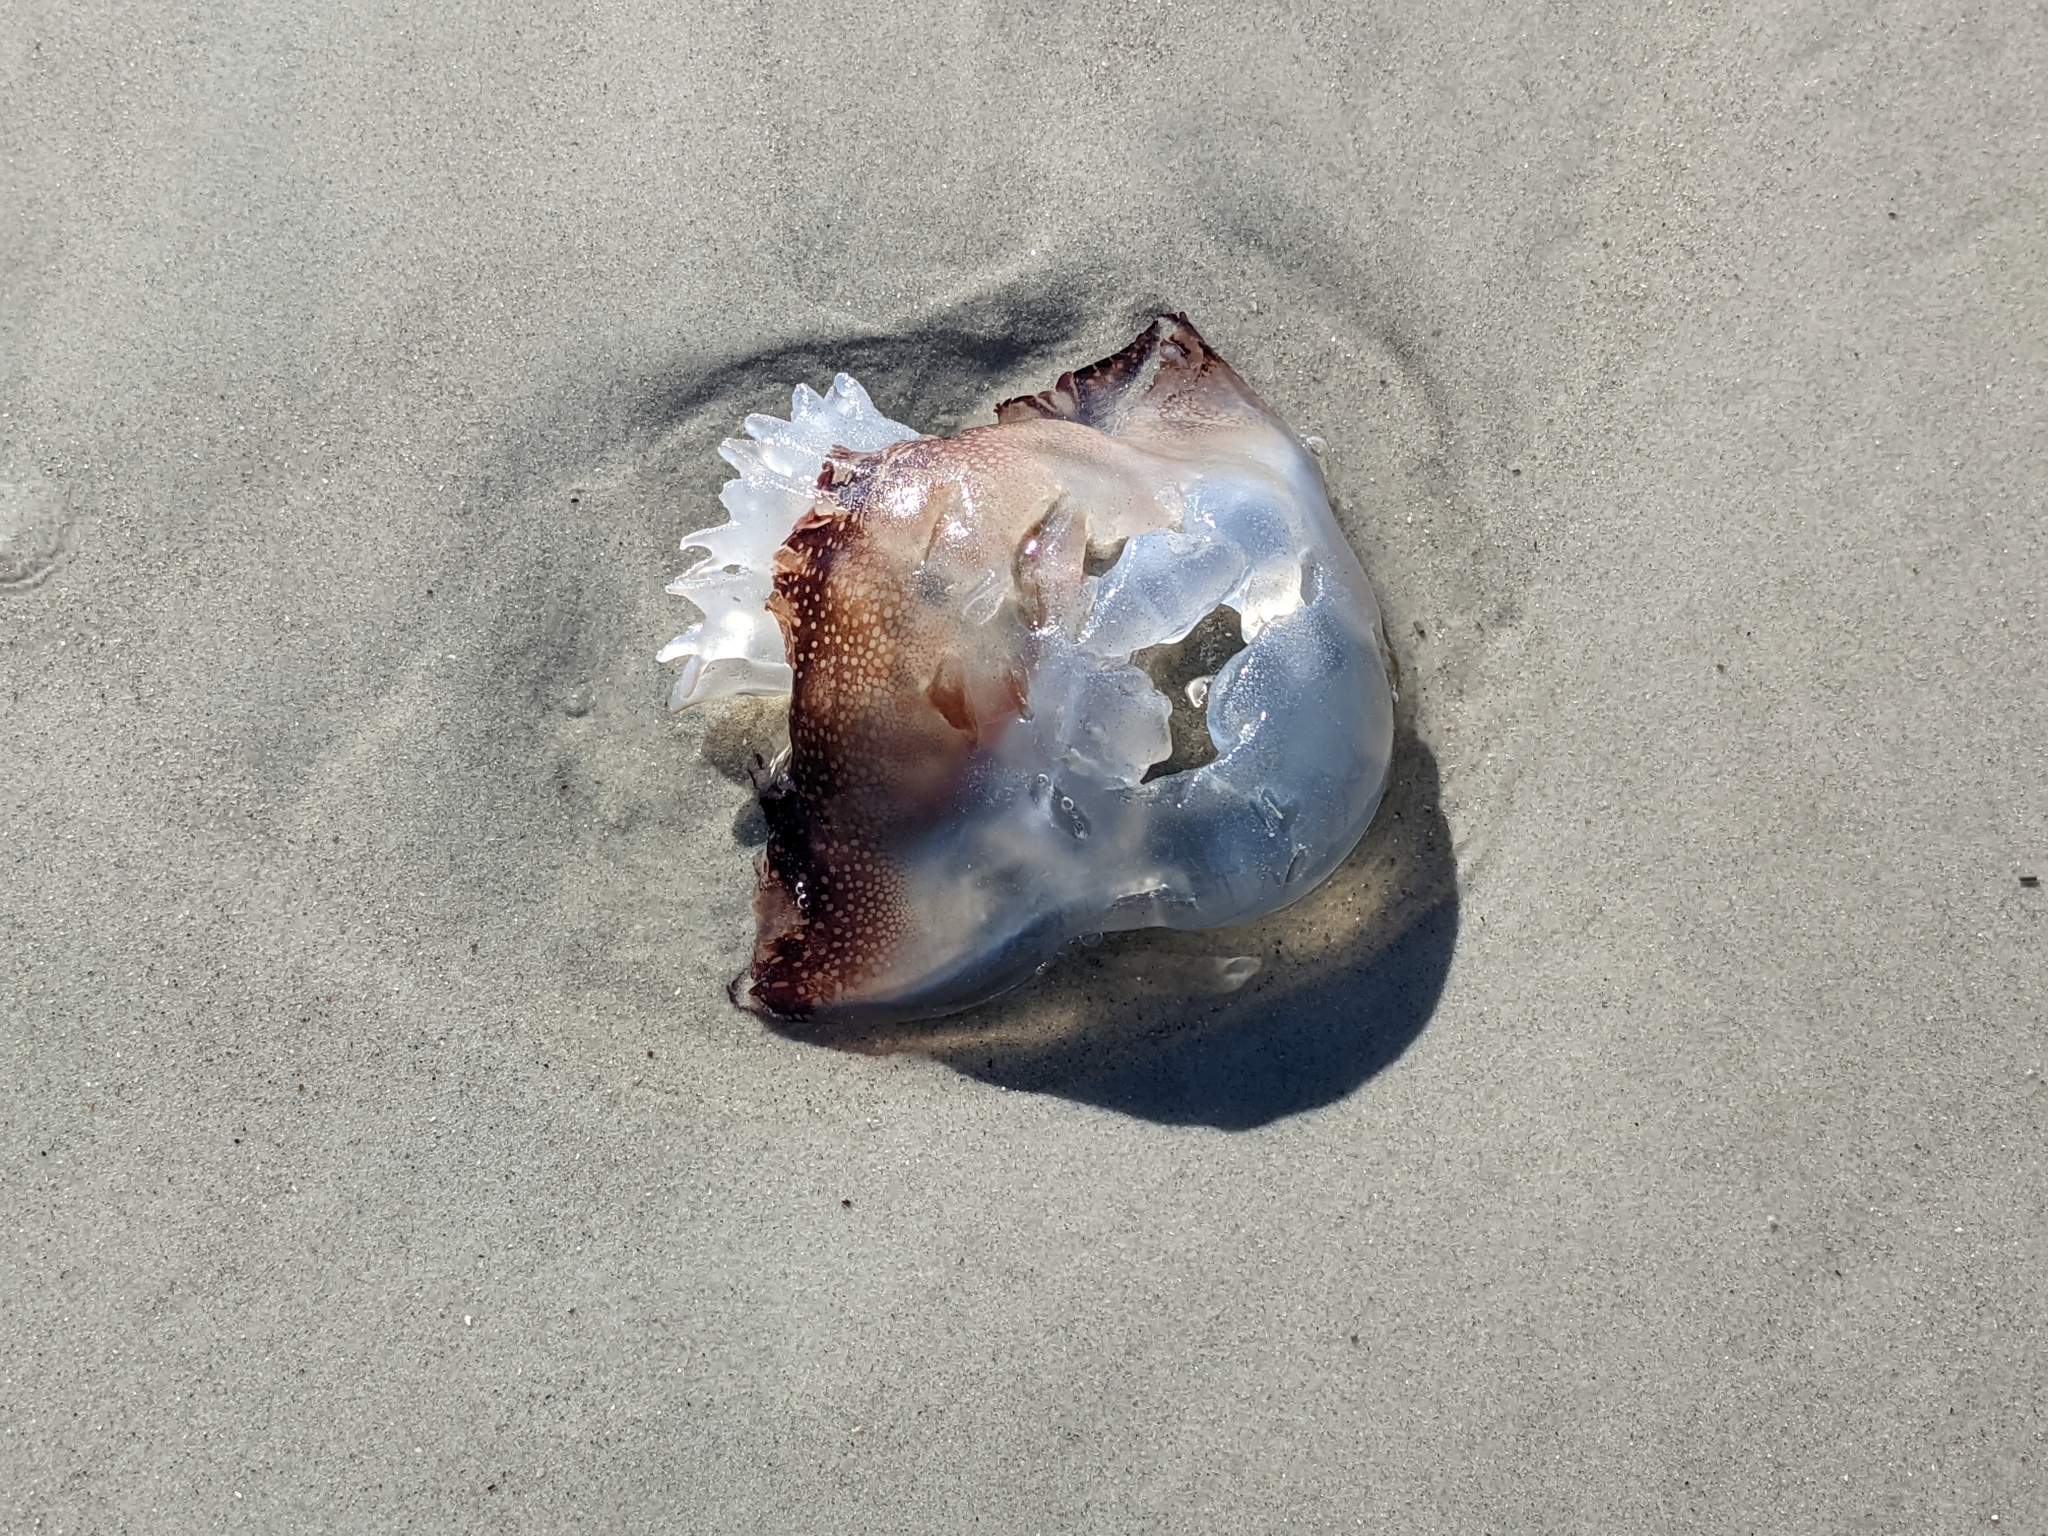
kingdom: Animalia
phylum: Cnidaria
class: Scyphozoa
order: Rhizostomeae
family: Stomolophidae
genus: Stomolophus
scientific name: Stomolophus meleagris
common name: Cabbagehead
